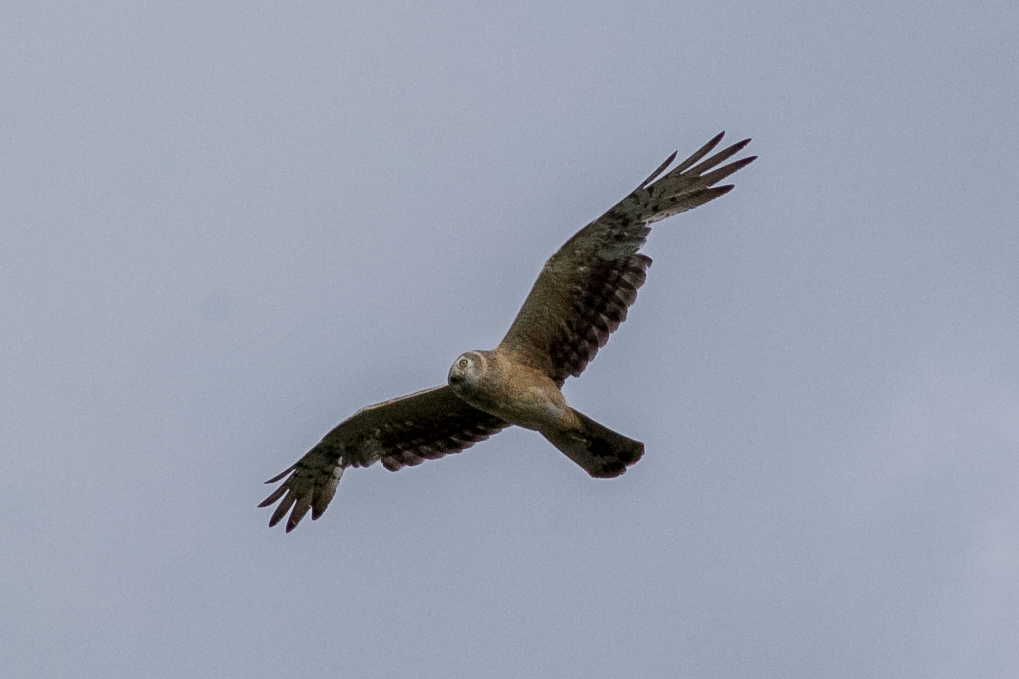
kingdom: Animalia
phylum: Chordata
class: Aves
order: Accipitriformes
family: Accipitridae
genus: Circus
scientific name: Circus macrourus
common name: Pallid harrier
